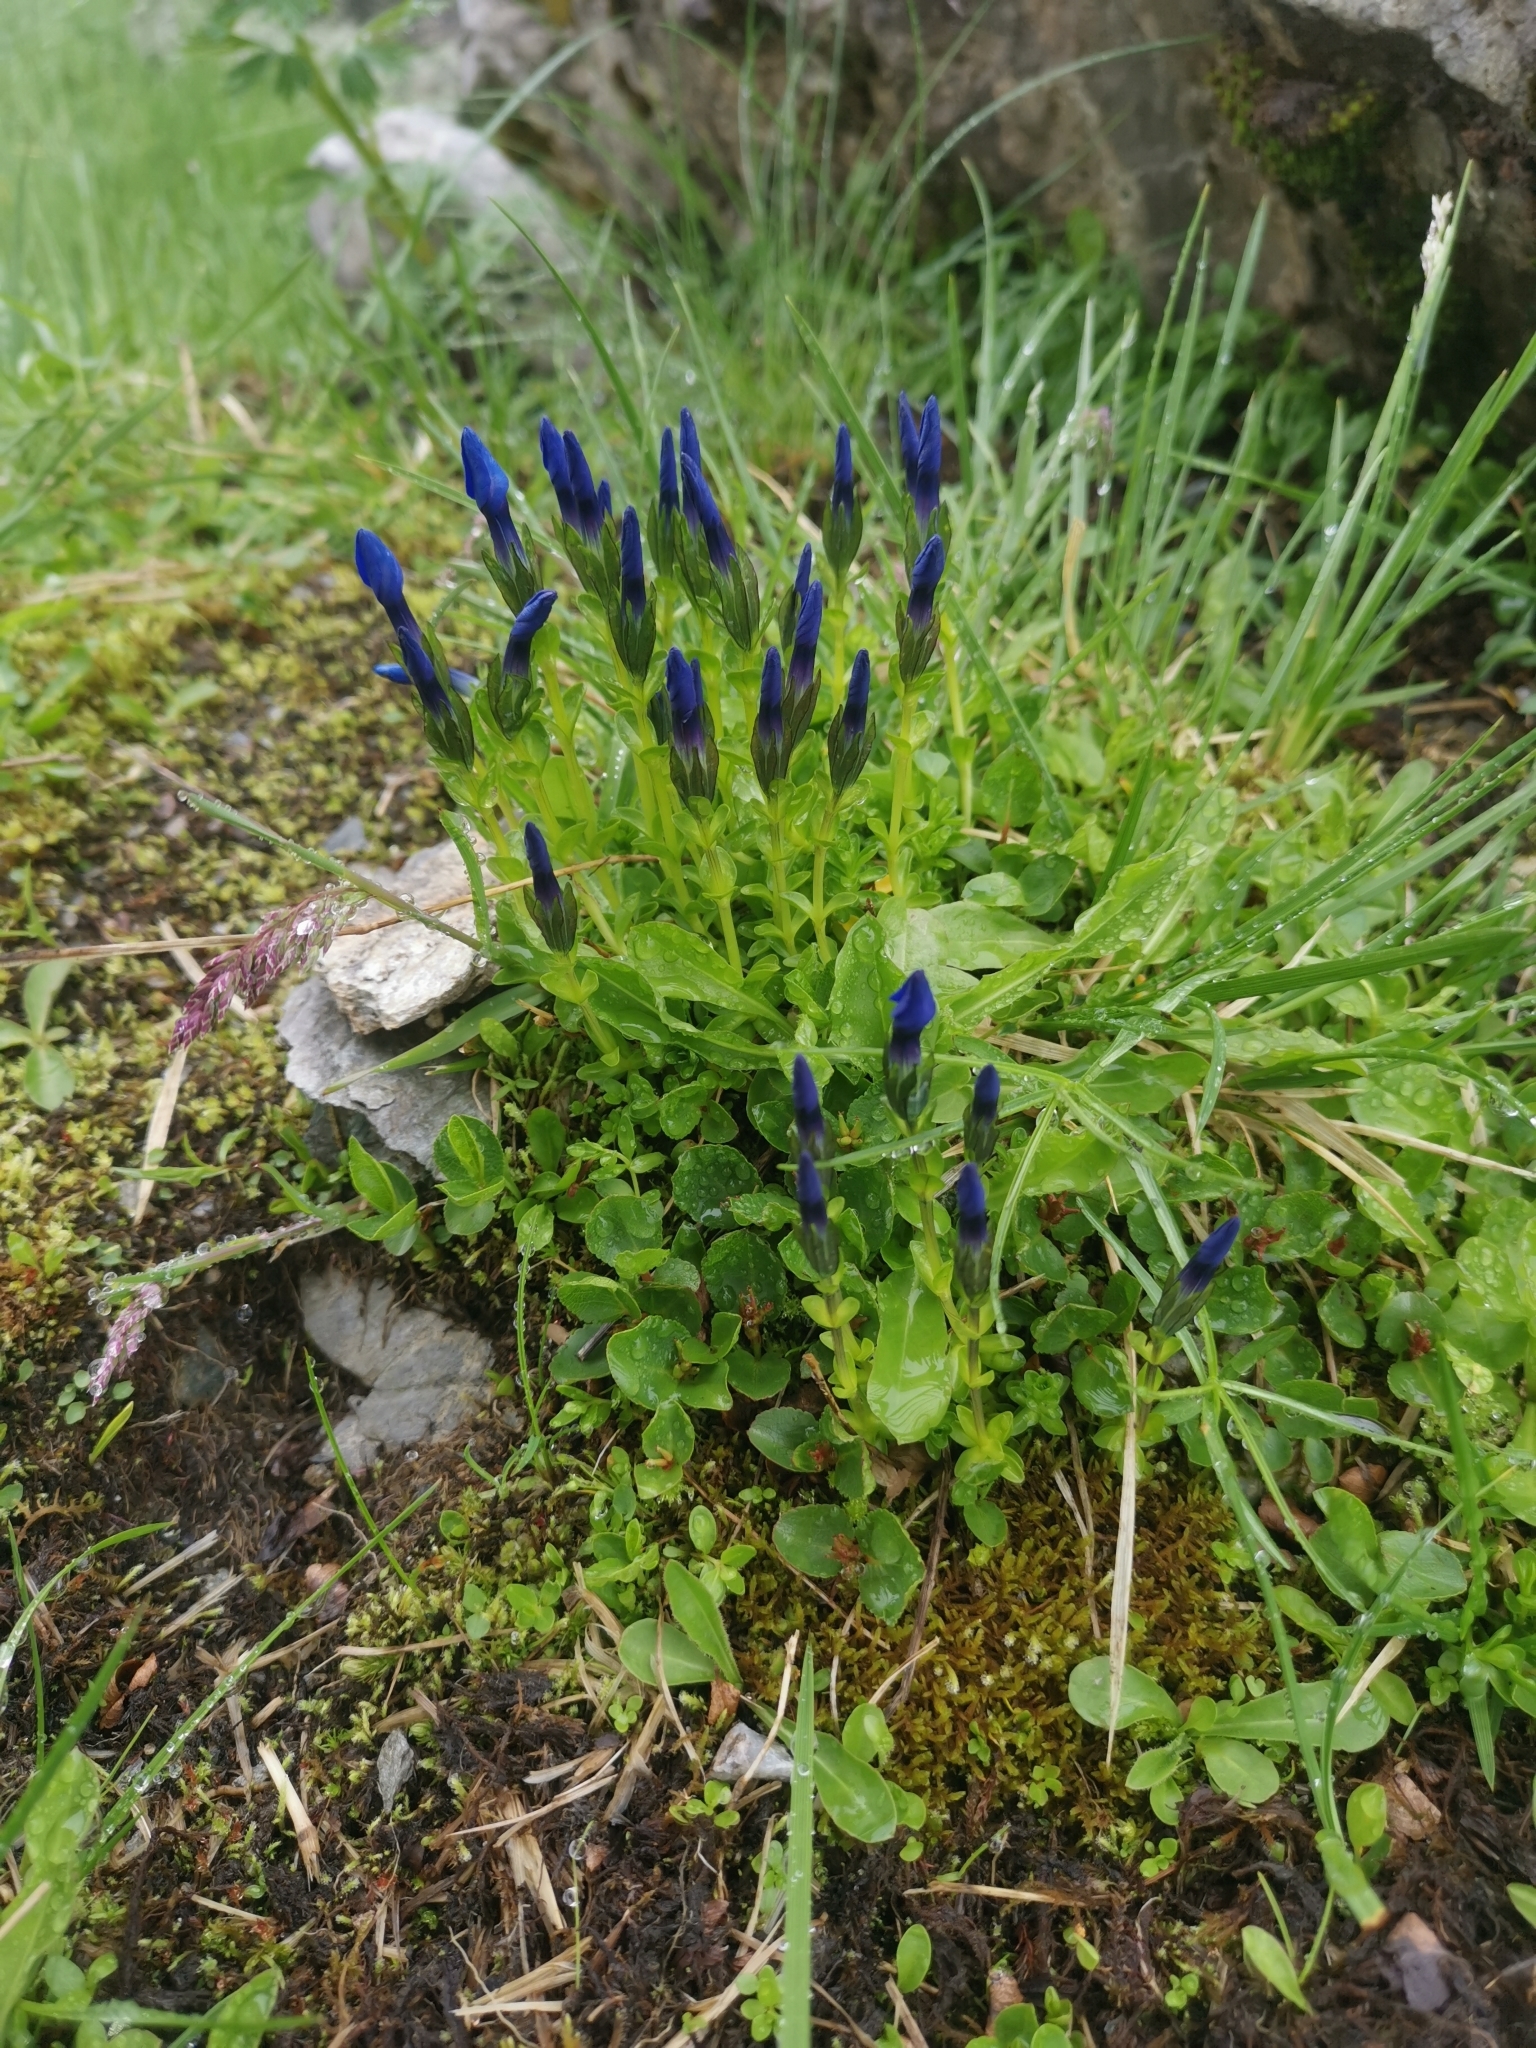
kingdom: Plantae
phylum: Tracheophyta
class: Magnoliopsida
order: Gentianales
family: Gentianaceae
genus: Gentiana
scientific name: Gentiana bavarica
